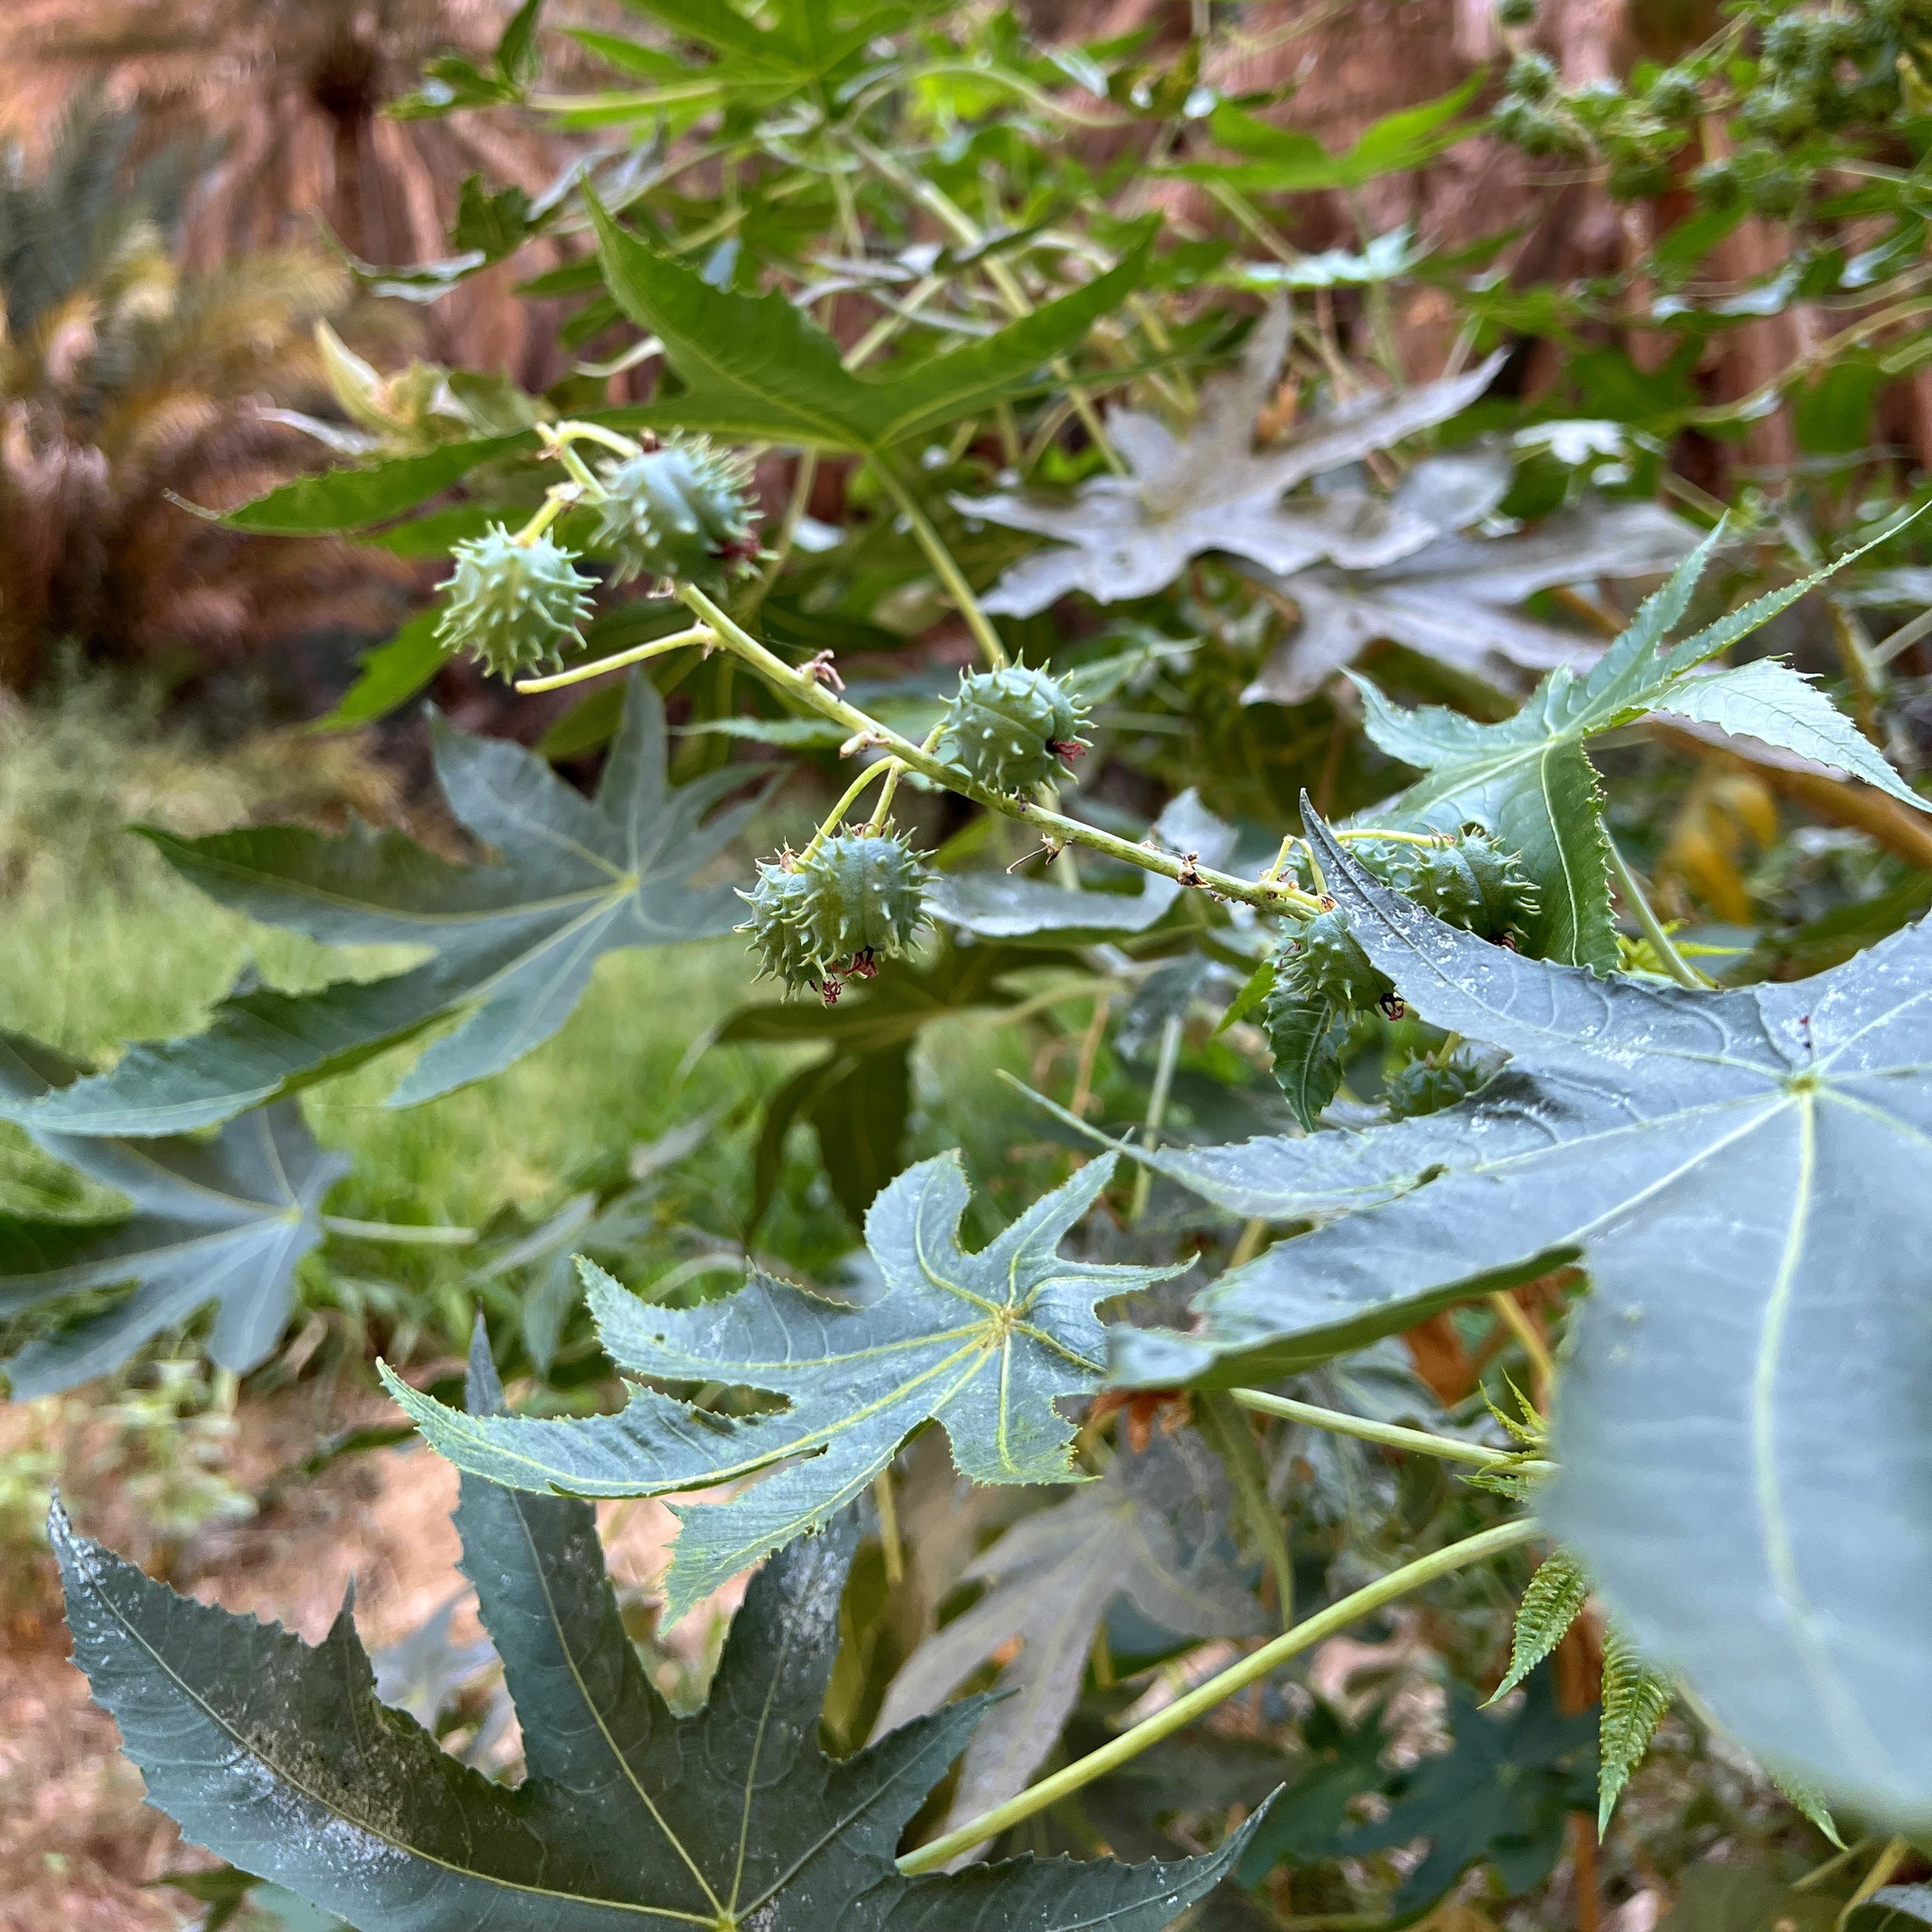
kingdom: Plantae
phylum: Tracheophyta
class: Magnoliopsida
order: Malpighiales
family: Euphorbiaceae
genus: Ricinus
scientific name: Ricinus communis
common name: Castor-oil-plant
